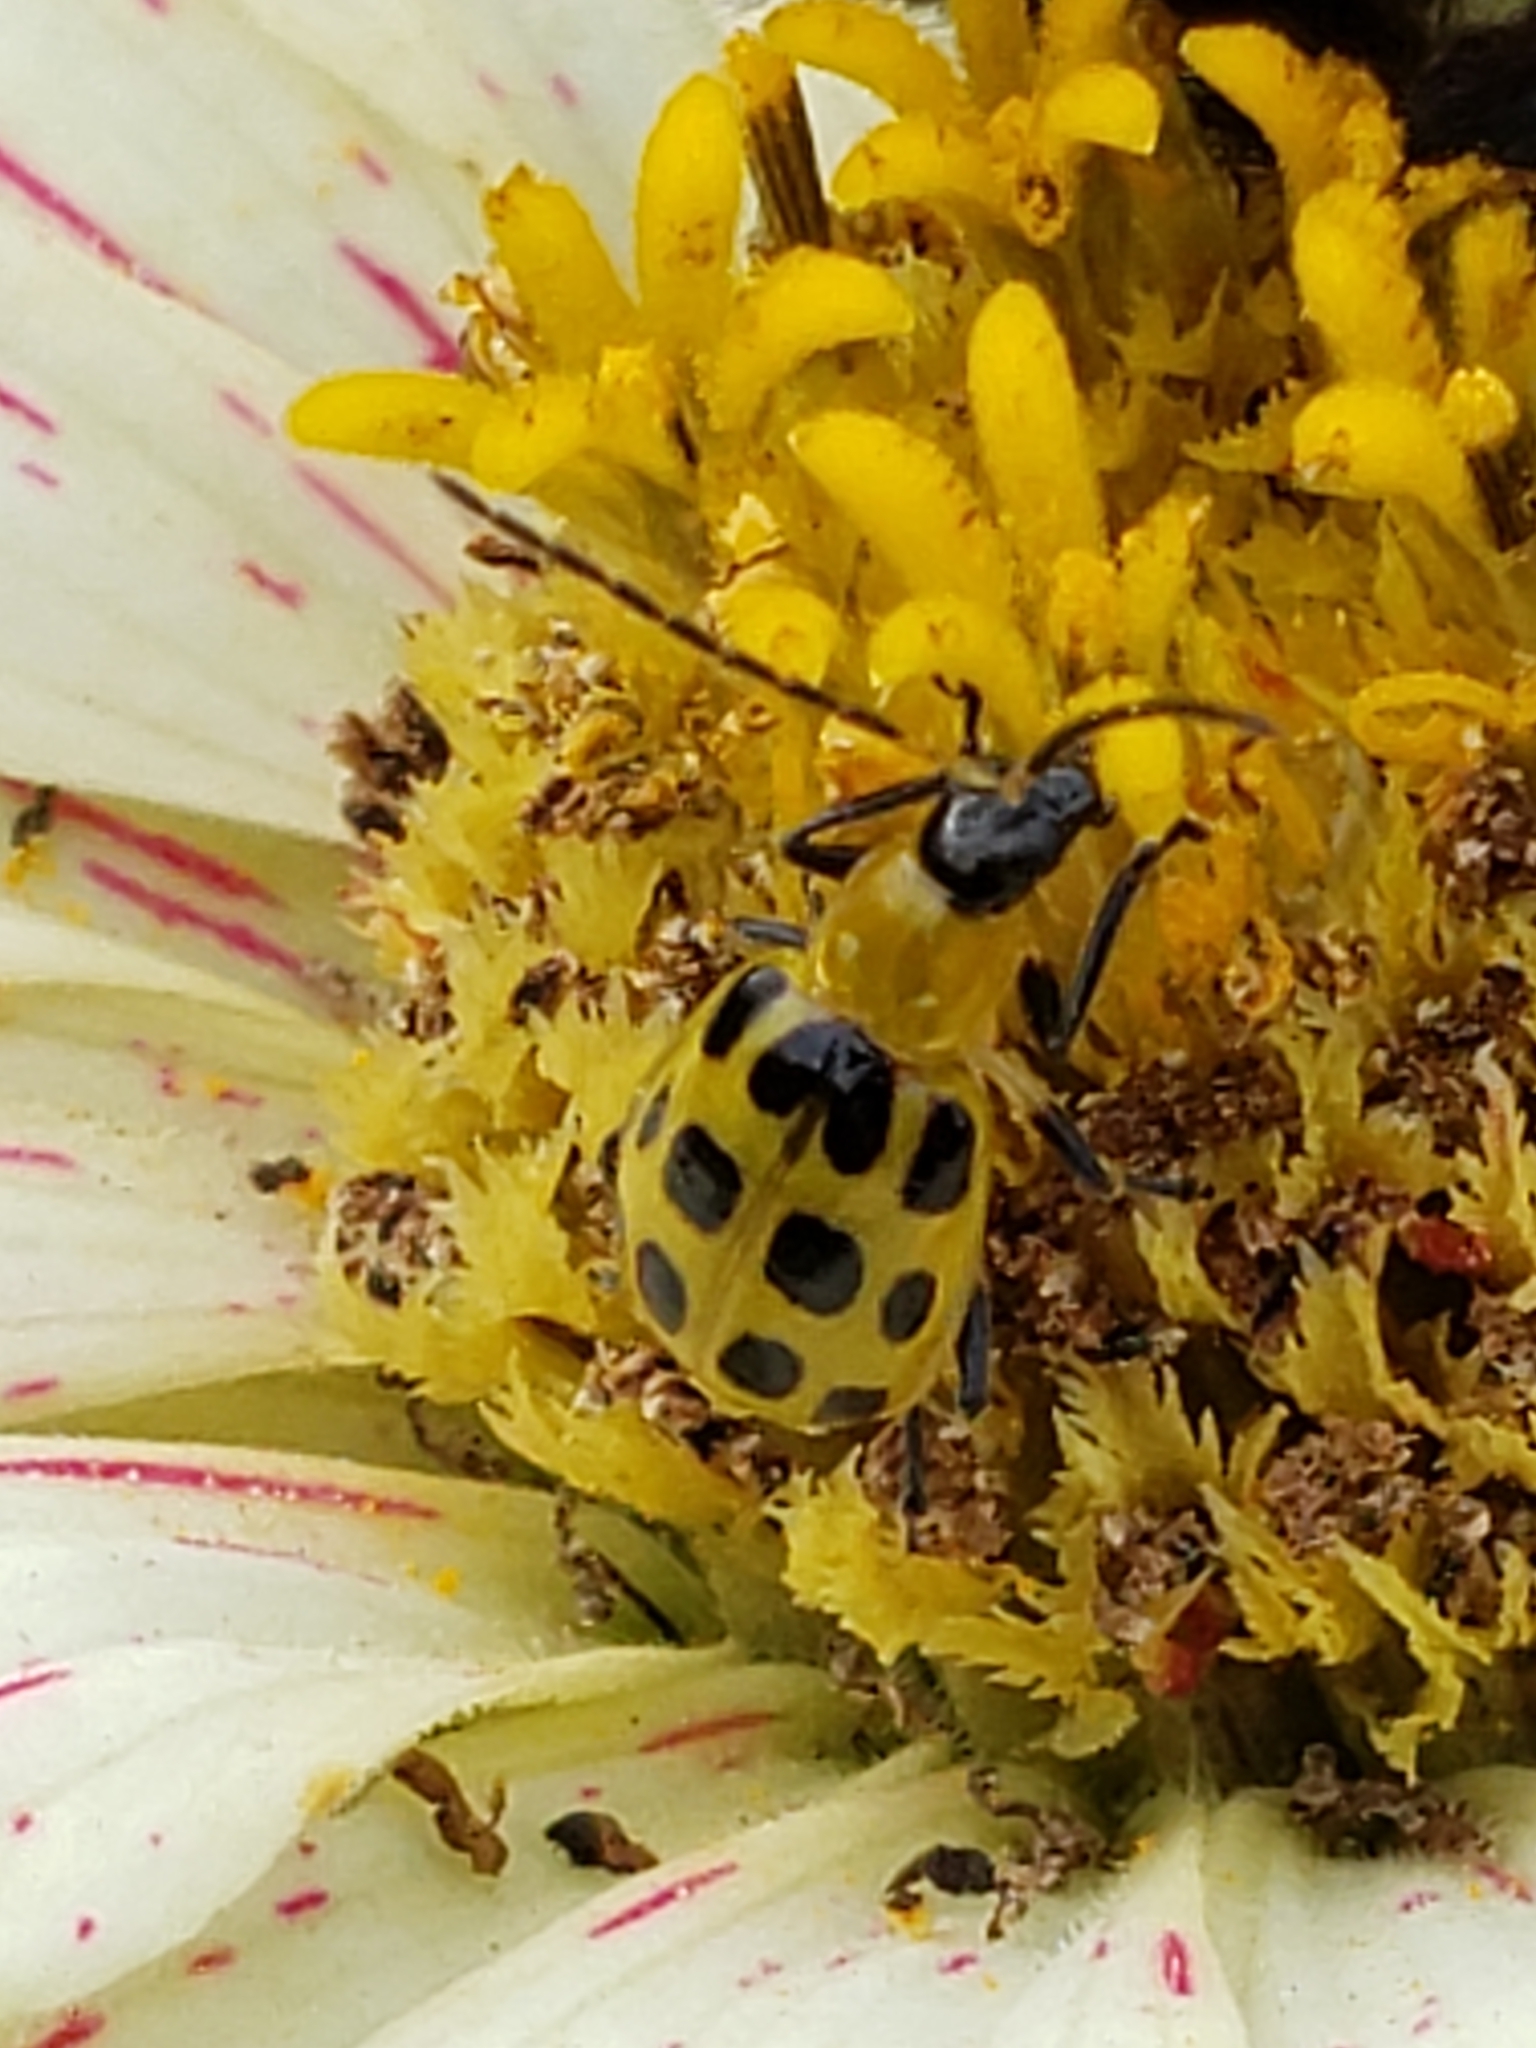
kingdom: Animalia
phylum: Arthropoda
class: Insecta
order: Coleoptera
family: Chrysomelidae
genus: Diabrotica
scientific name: Diabrotica undecimpunctata
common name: Spotted cucumber beetle
